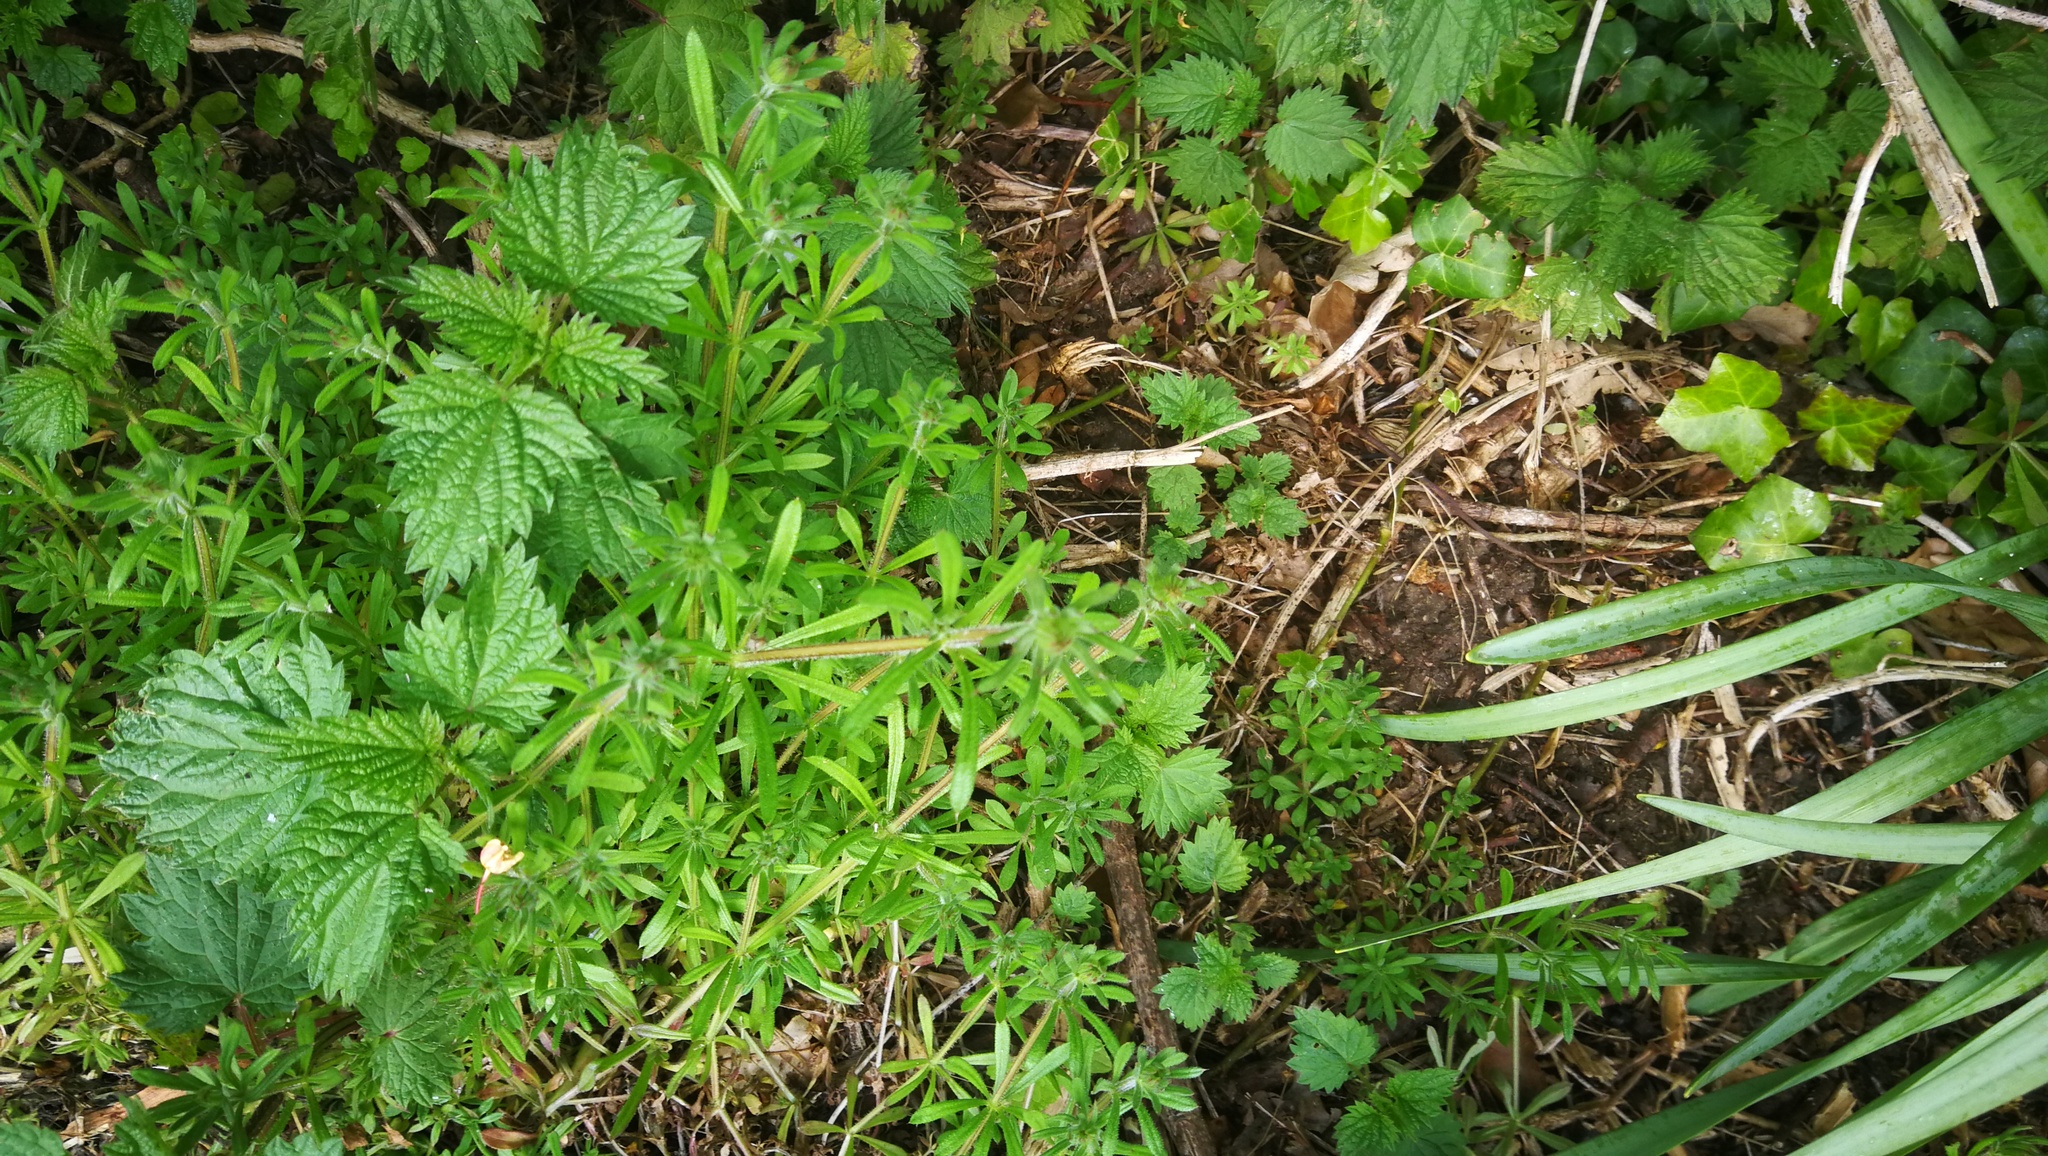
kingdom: Plantae
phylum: Tracheophyta
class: Magnoliopsida
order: Gentianales
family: Rubiaceae
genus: Galium
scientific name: Galium aparine
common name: Cleavers
